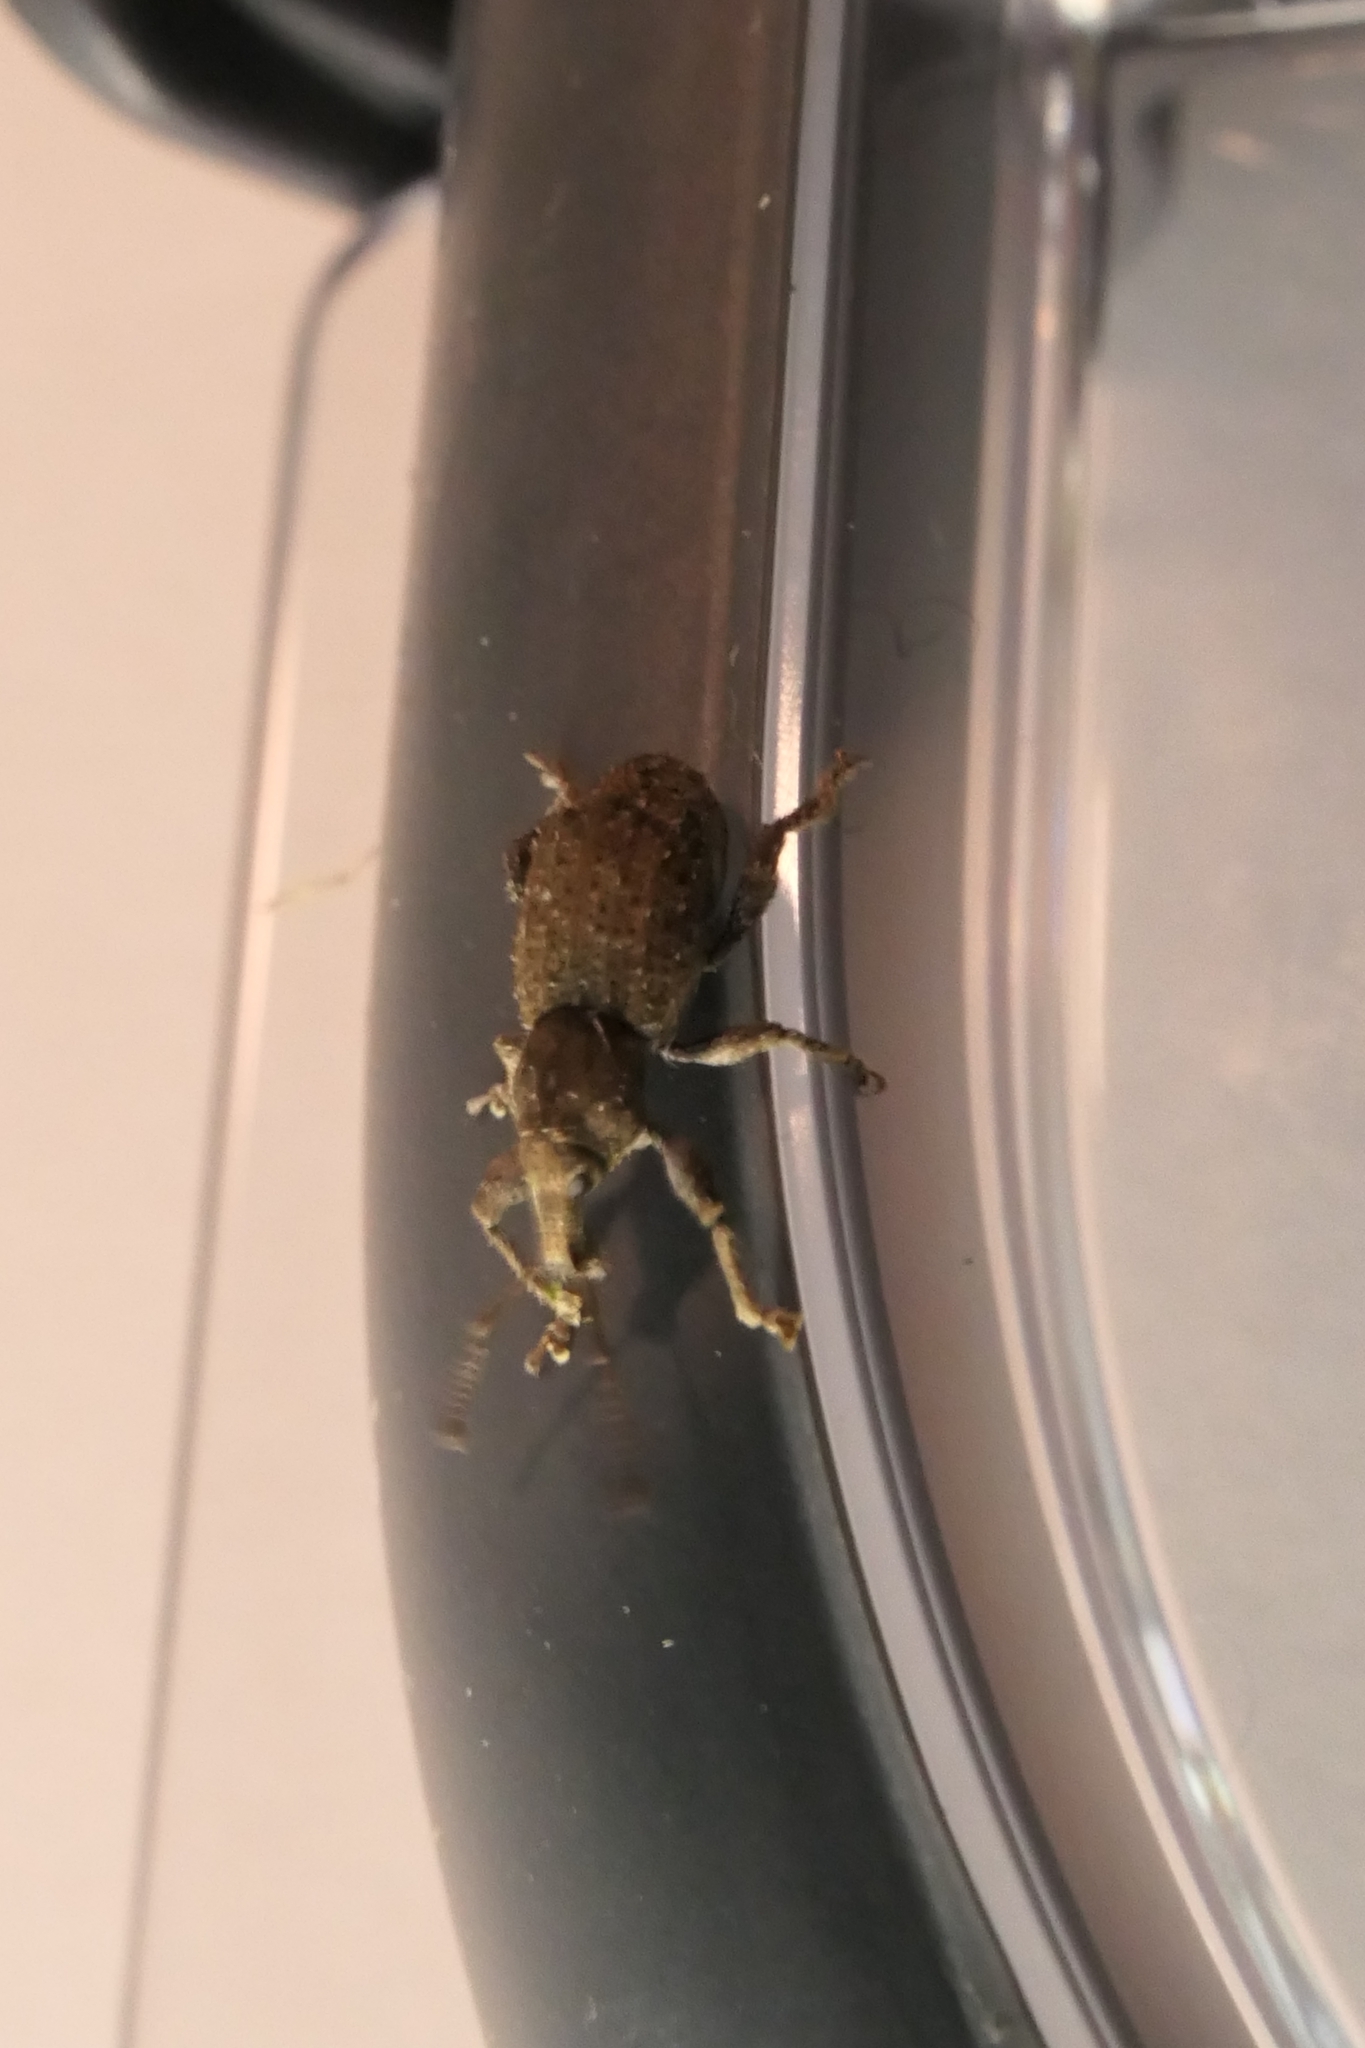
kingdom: Animalia
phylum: Arthropoda
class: Insecta
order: Coleoptera
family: Curculionidae
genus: Irenimus
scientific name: Irenimus parilis
